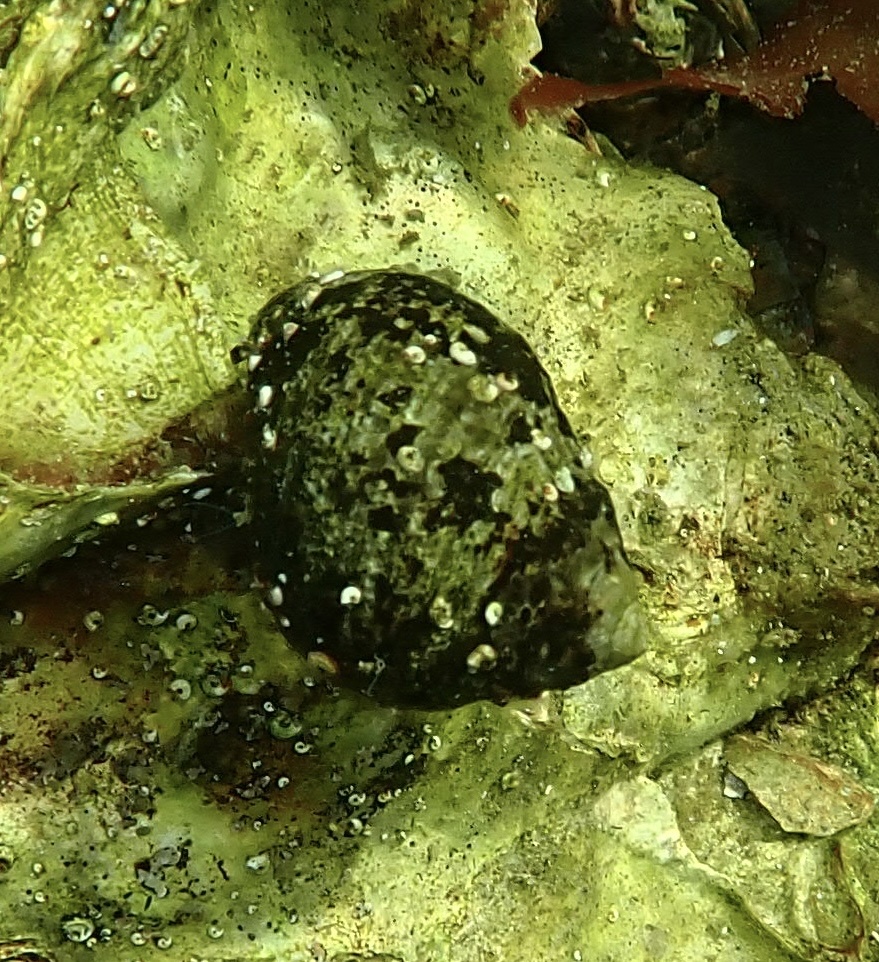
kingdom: Animalia
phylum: Mollusca
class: Gastropoda
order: Littorinimorpha
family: Littorinidae
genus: Littorina
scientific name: Littorina littorea
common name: Common periwinkle
